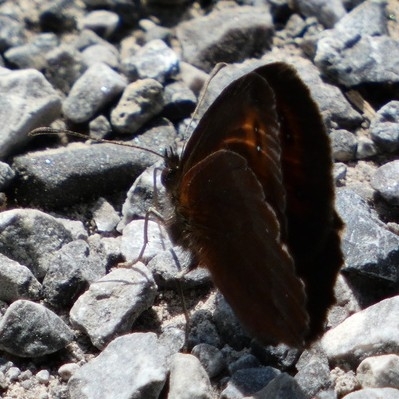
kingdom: Animalia
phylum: Arthropoda
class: Insecta
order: Lepidoptera
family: Nymphalidae
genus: Erebia
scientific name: Erebia aethiops
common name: Scotch argus
